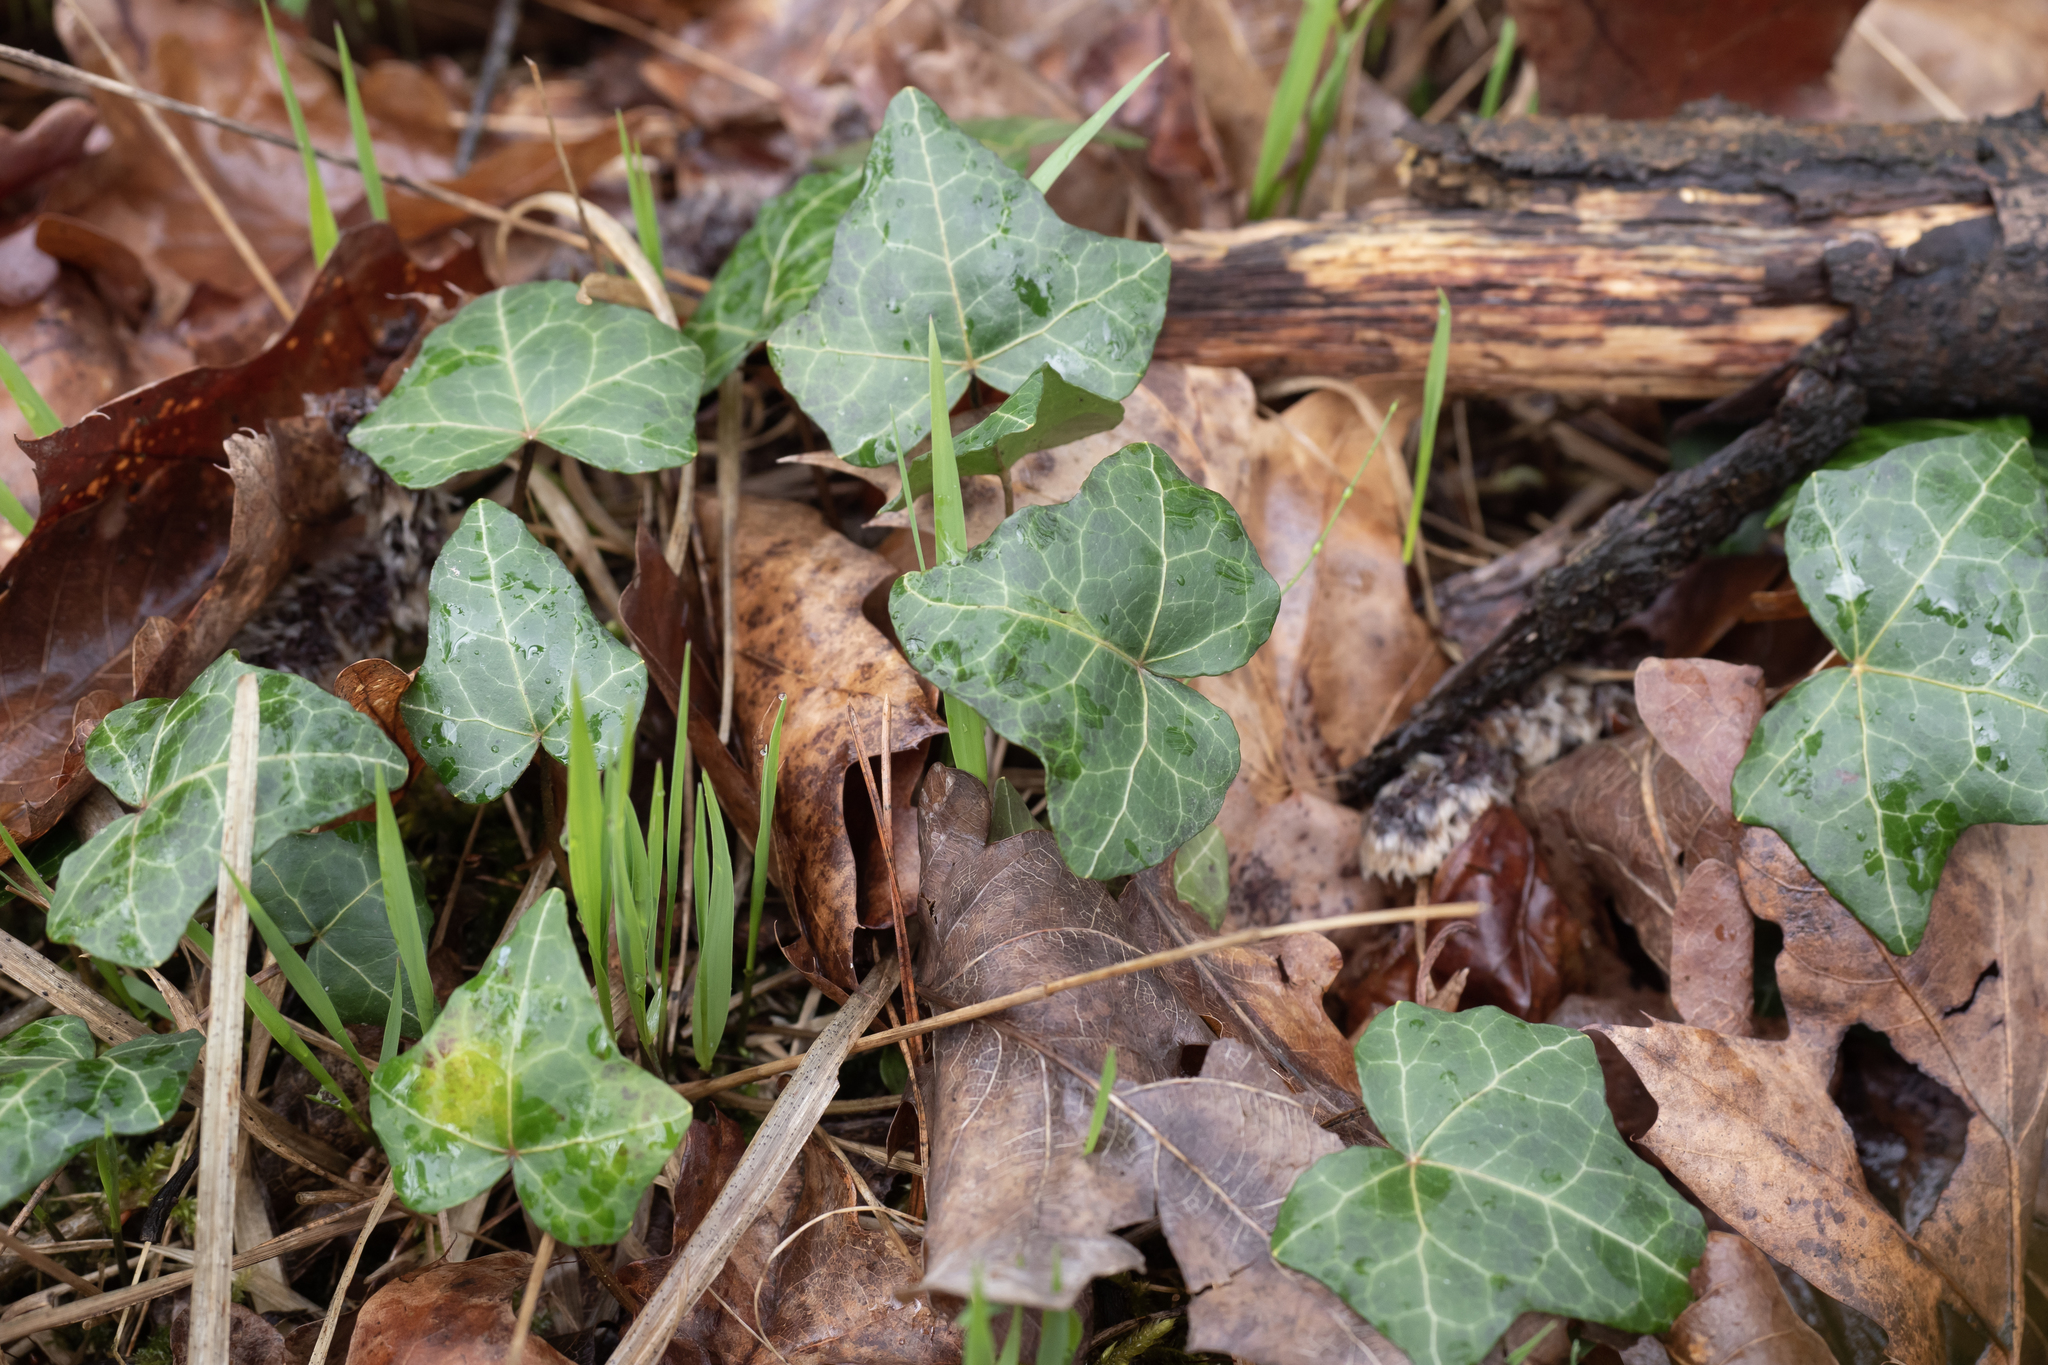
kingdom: Plantae
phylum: Tracheophyta
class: Magnoliopsida
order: Apiales
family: Araliaceae
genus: Hedera
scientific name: Hedera helix
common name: Ivy
